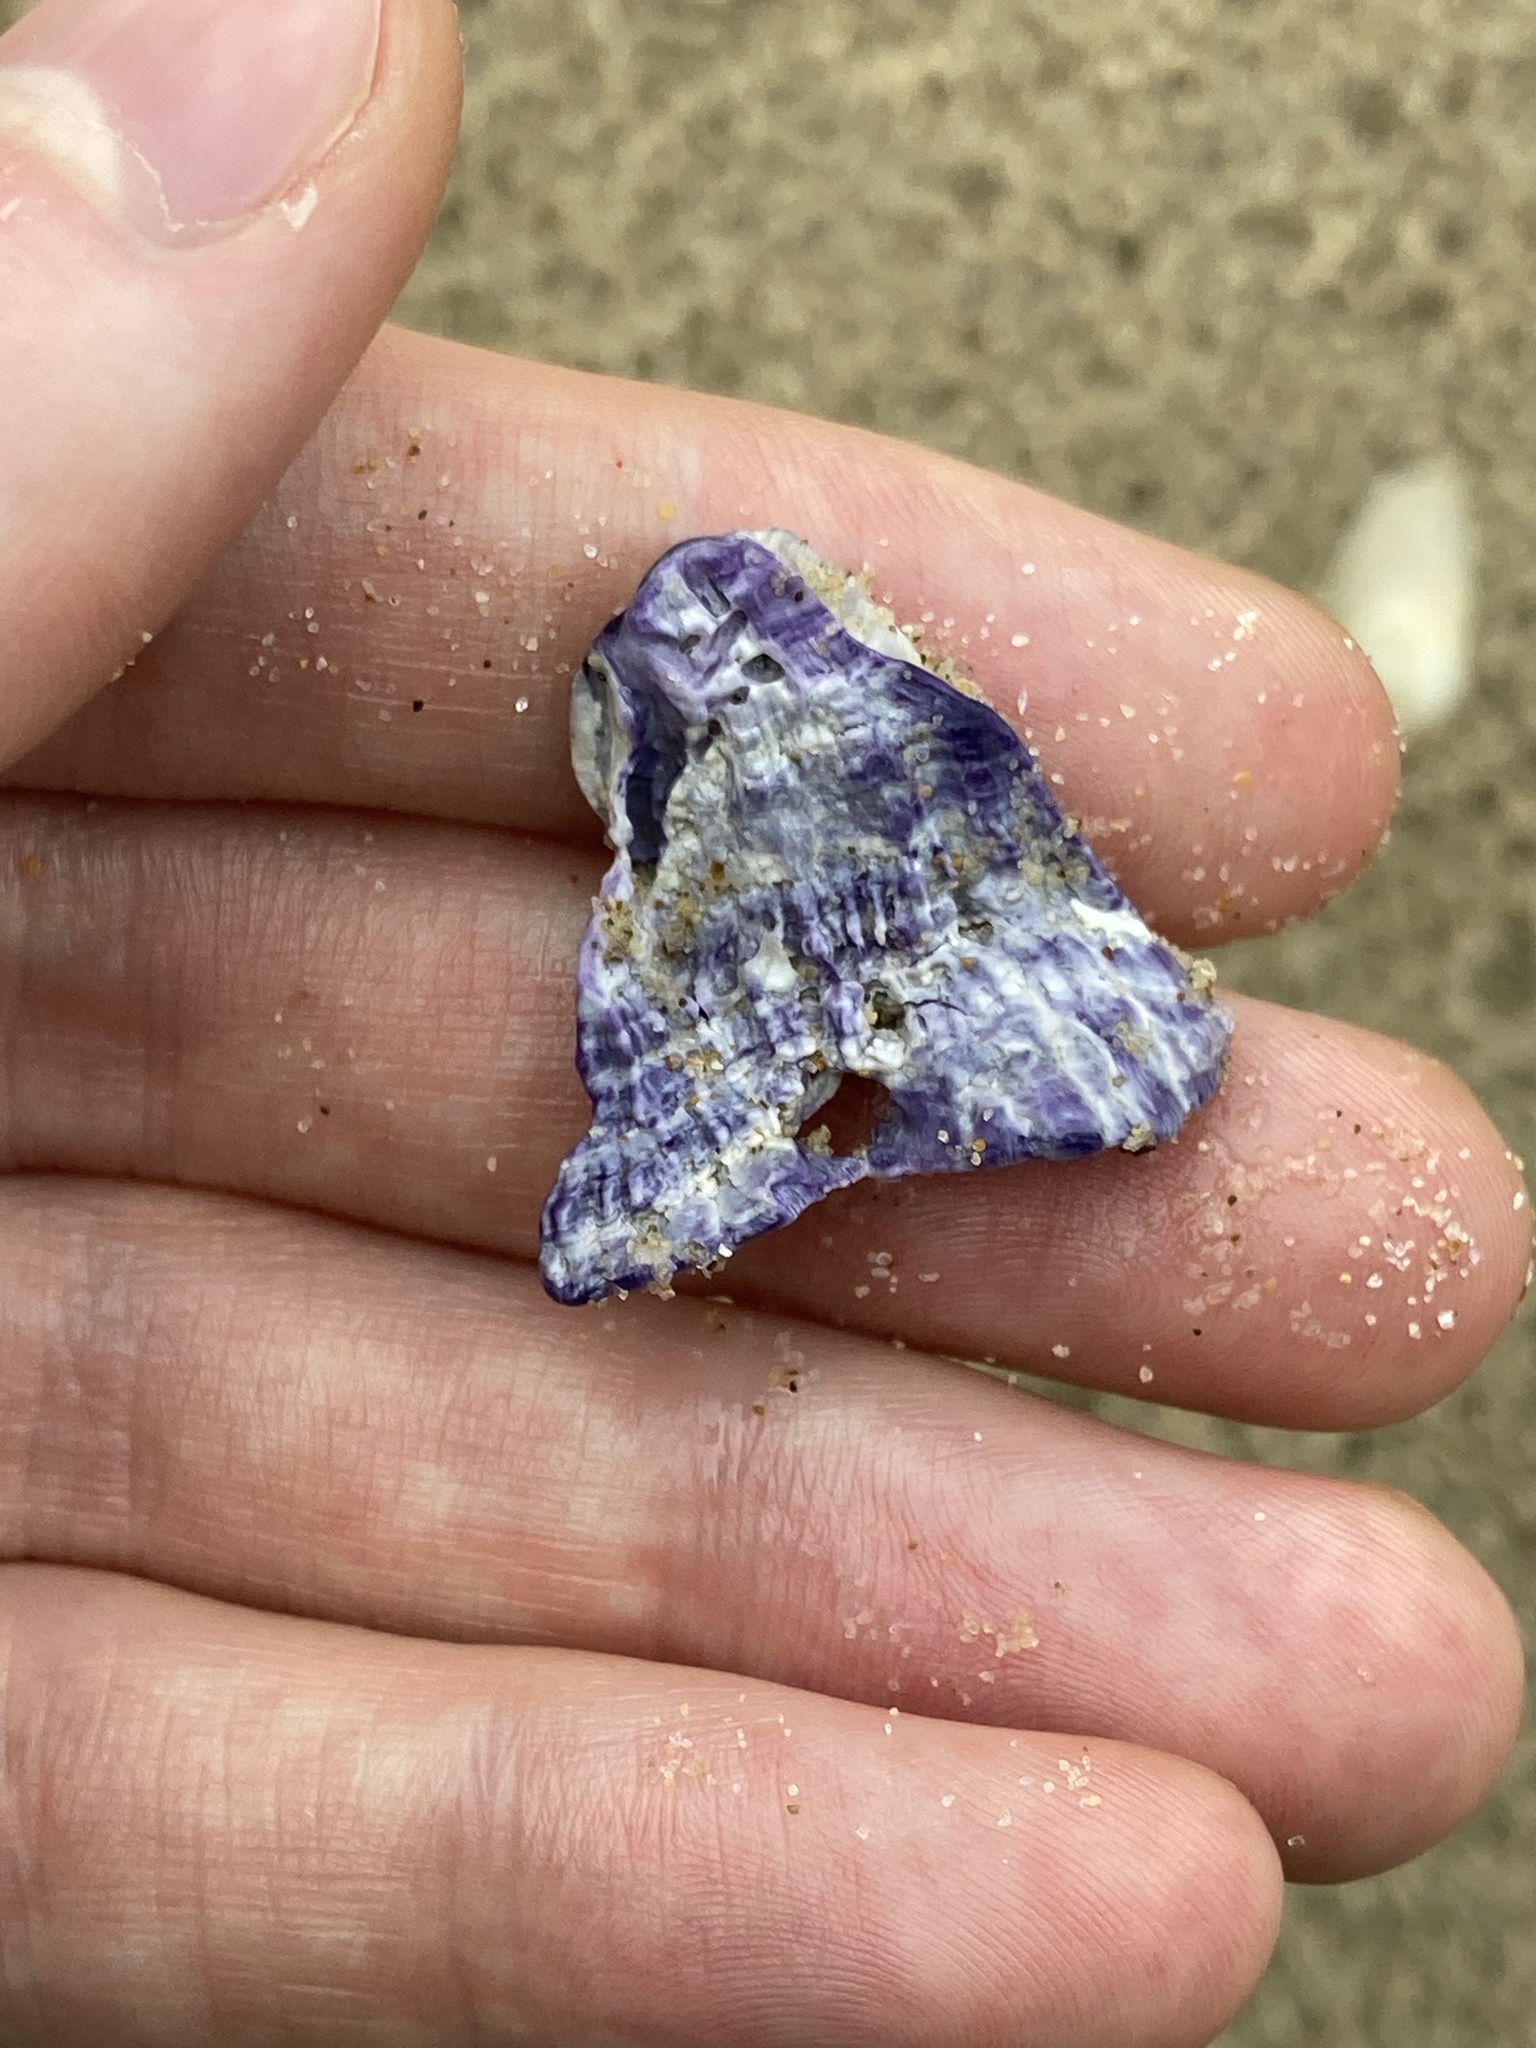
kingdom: Animalia
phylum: Arthropoda
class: Maxillopoda
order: Sessilia
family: Austrobalanidae
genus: Austrobalanus
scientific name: Austrobalanus imperator
